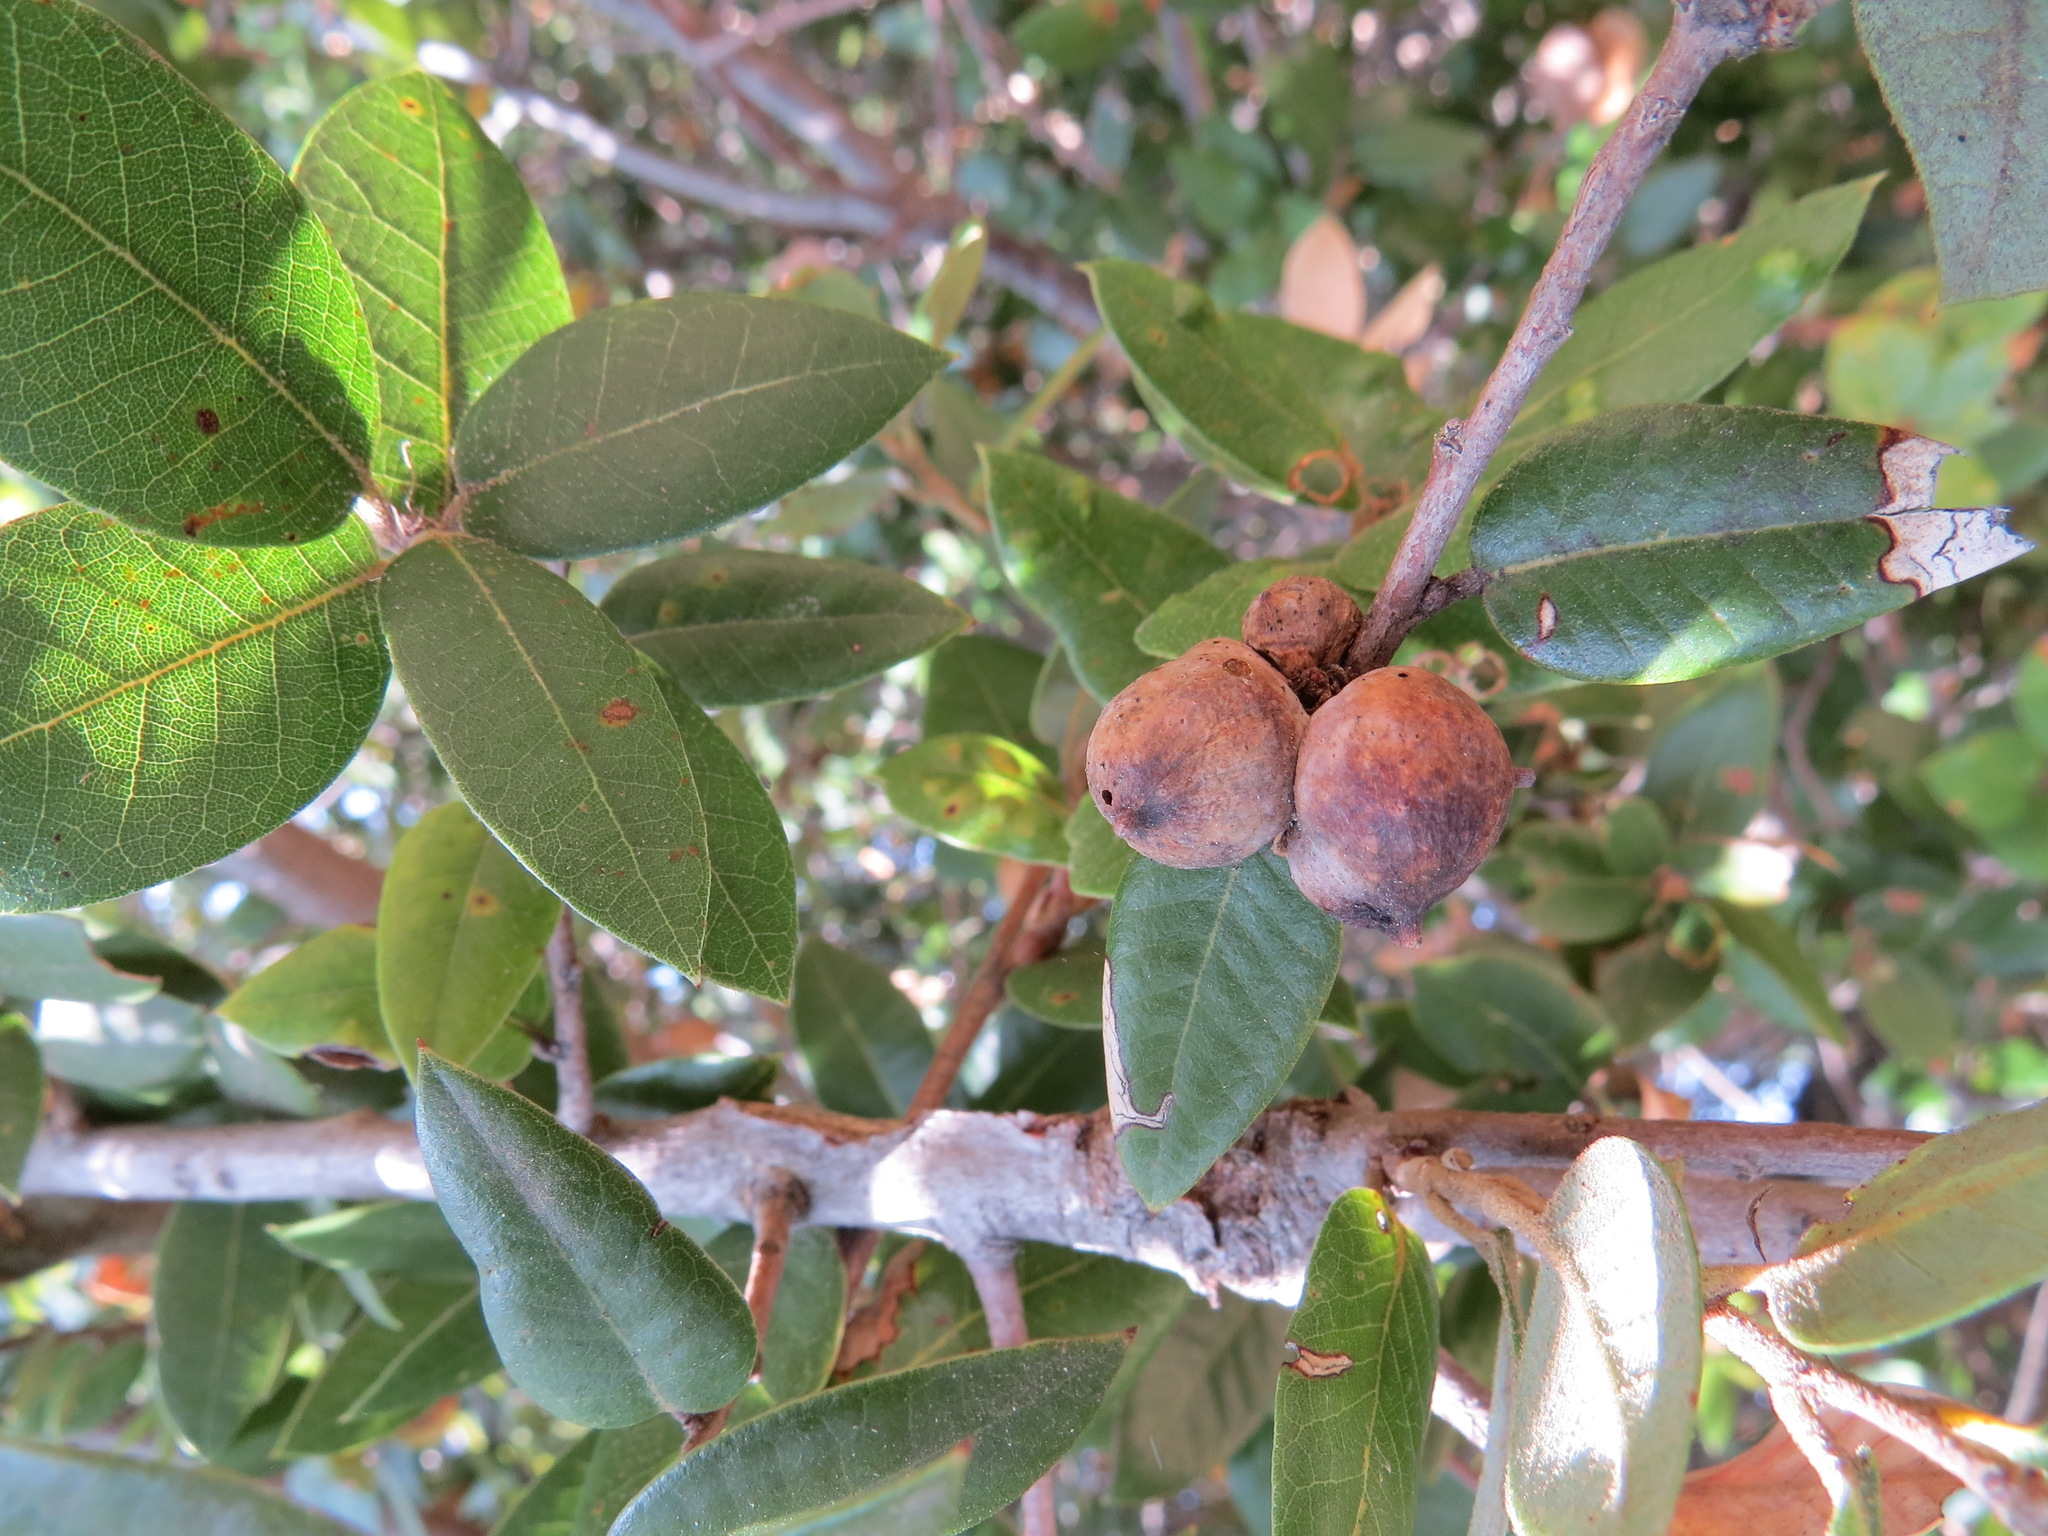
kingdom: Animalia
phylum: Arthropoda
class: Insecta
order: Hymenoptera
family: Cynipidae
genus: Heteroecus
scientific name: Heteroecus
